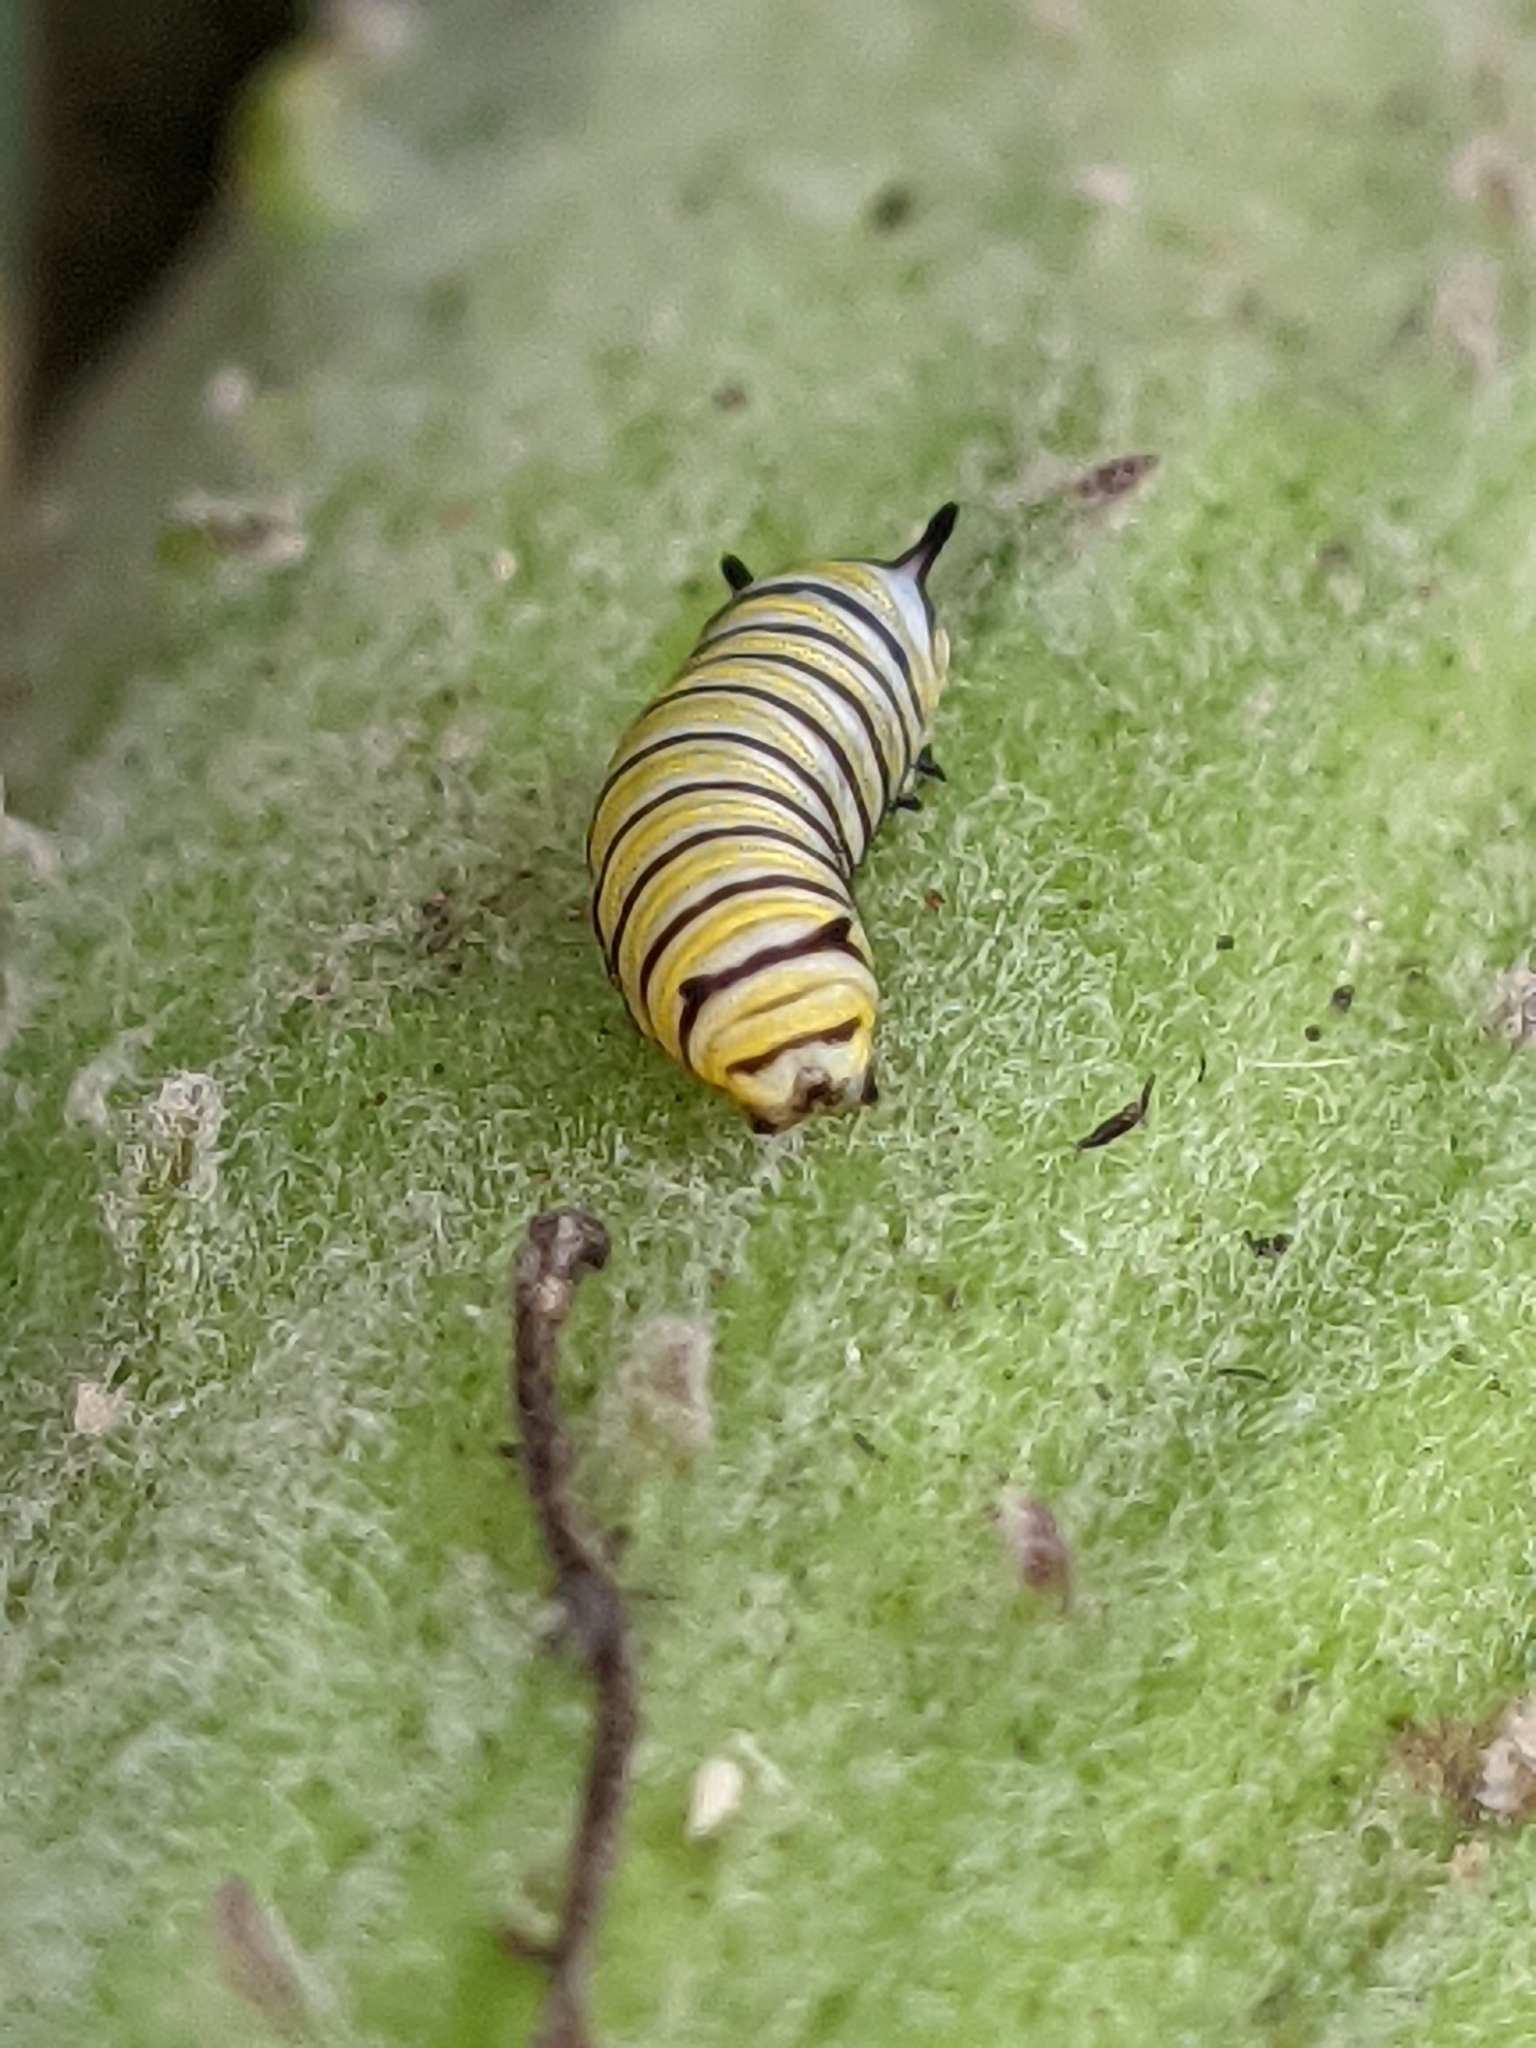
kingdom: Animalia
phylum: Arthropoda
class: Insecta
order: Lepidoptera
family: Nymphalidae
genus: Danaus
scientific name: Danaus plexippus
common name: Monarch
